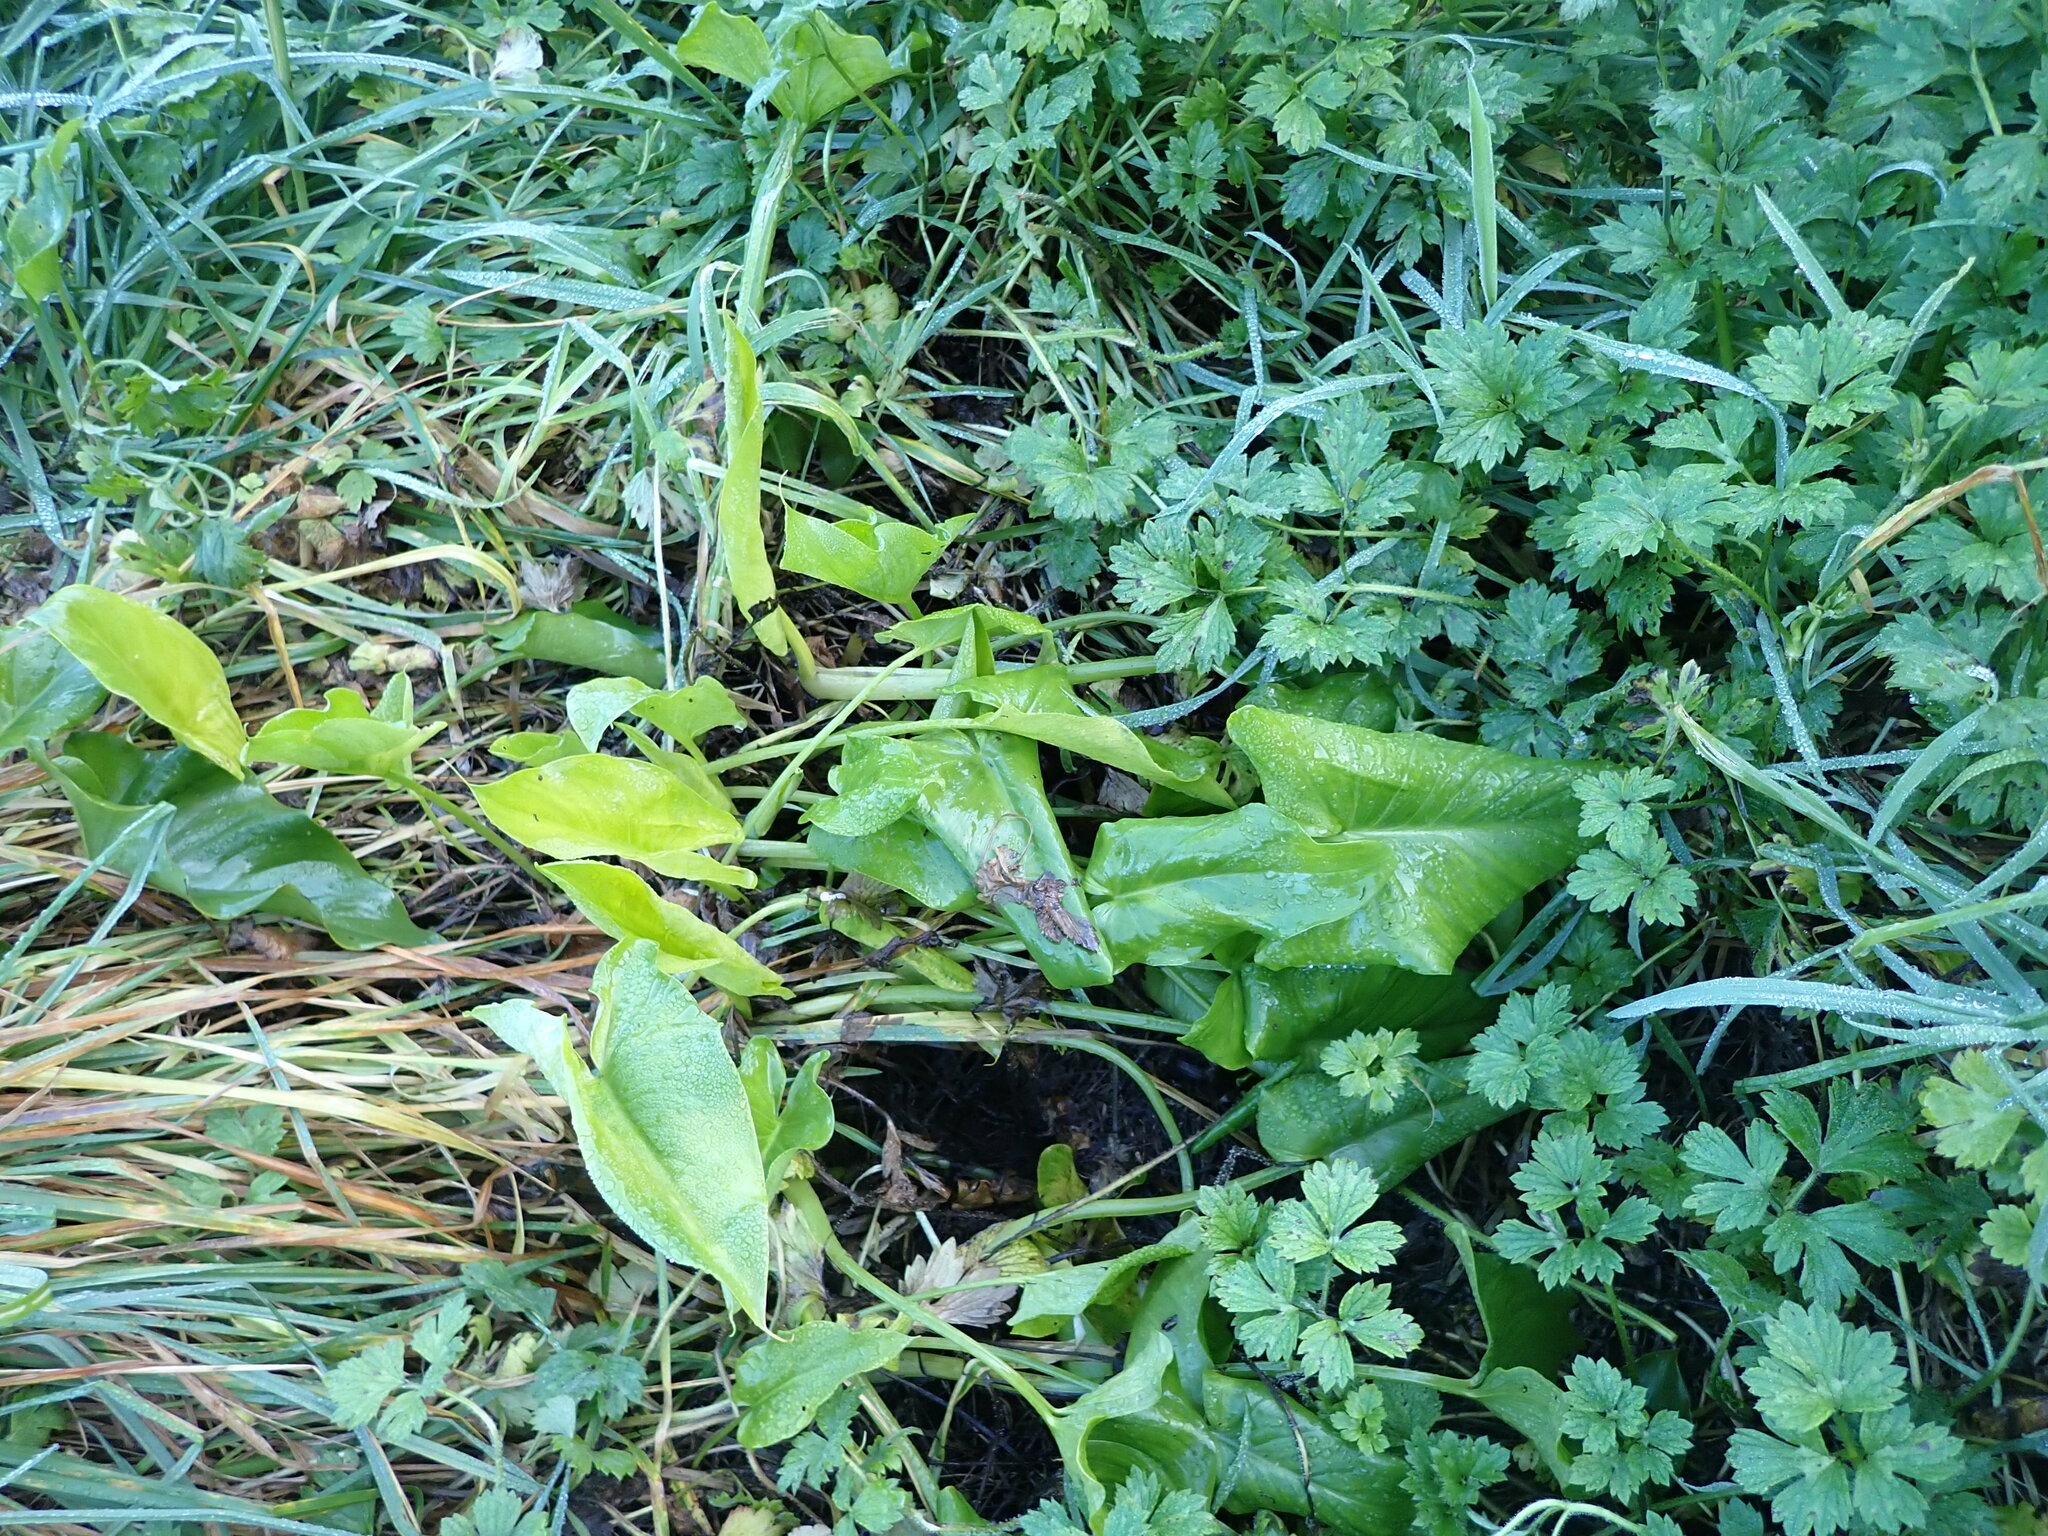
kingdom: Plantae
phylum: Tracheophyta
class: Liliopsida
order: Alismatales
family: Araceae
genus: Zantedeschia
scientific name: Zantedeschia aethiopica
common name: Altar-lily
